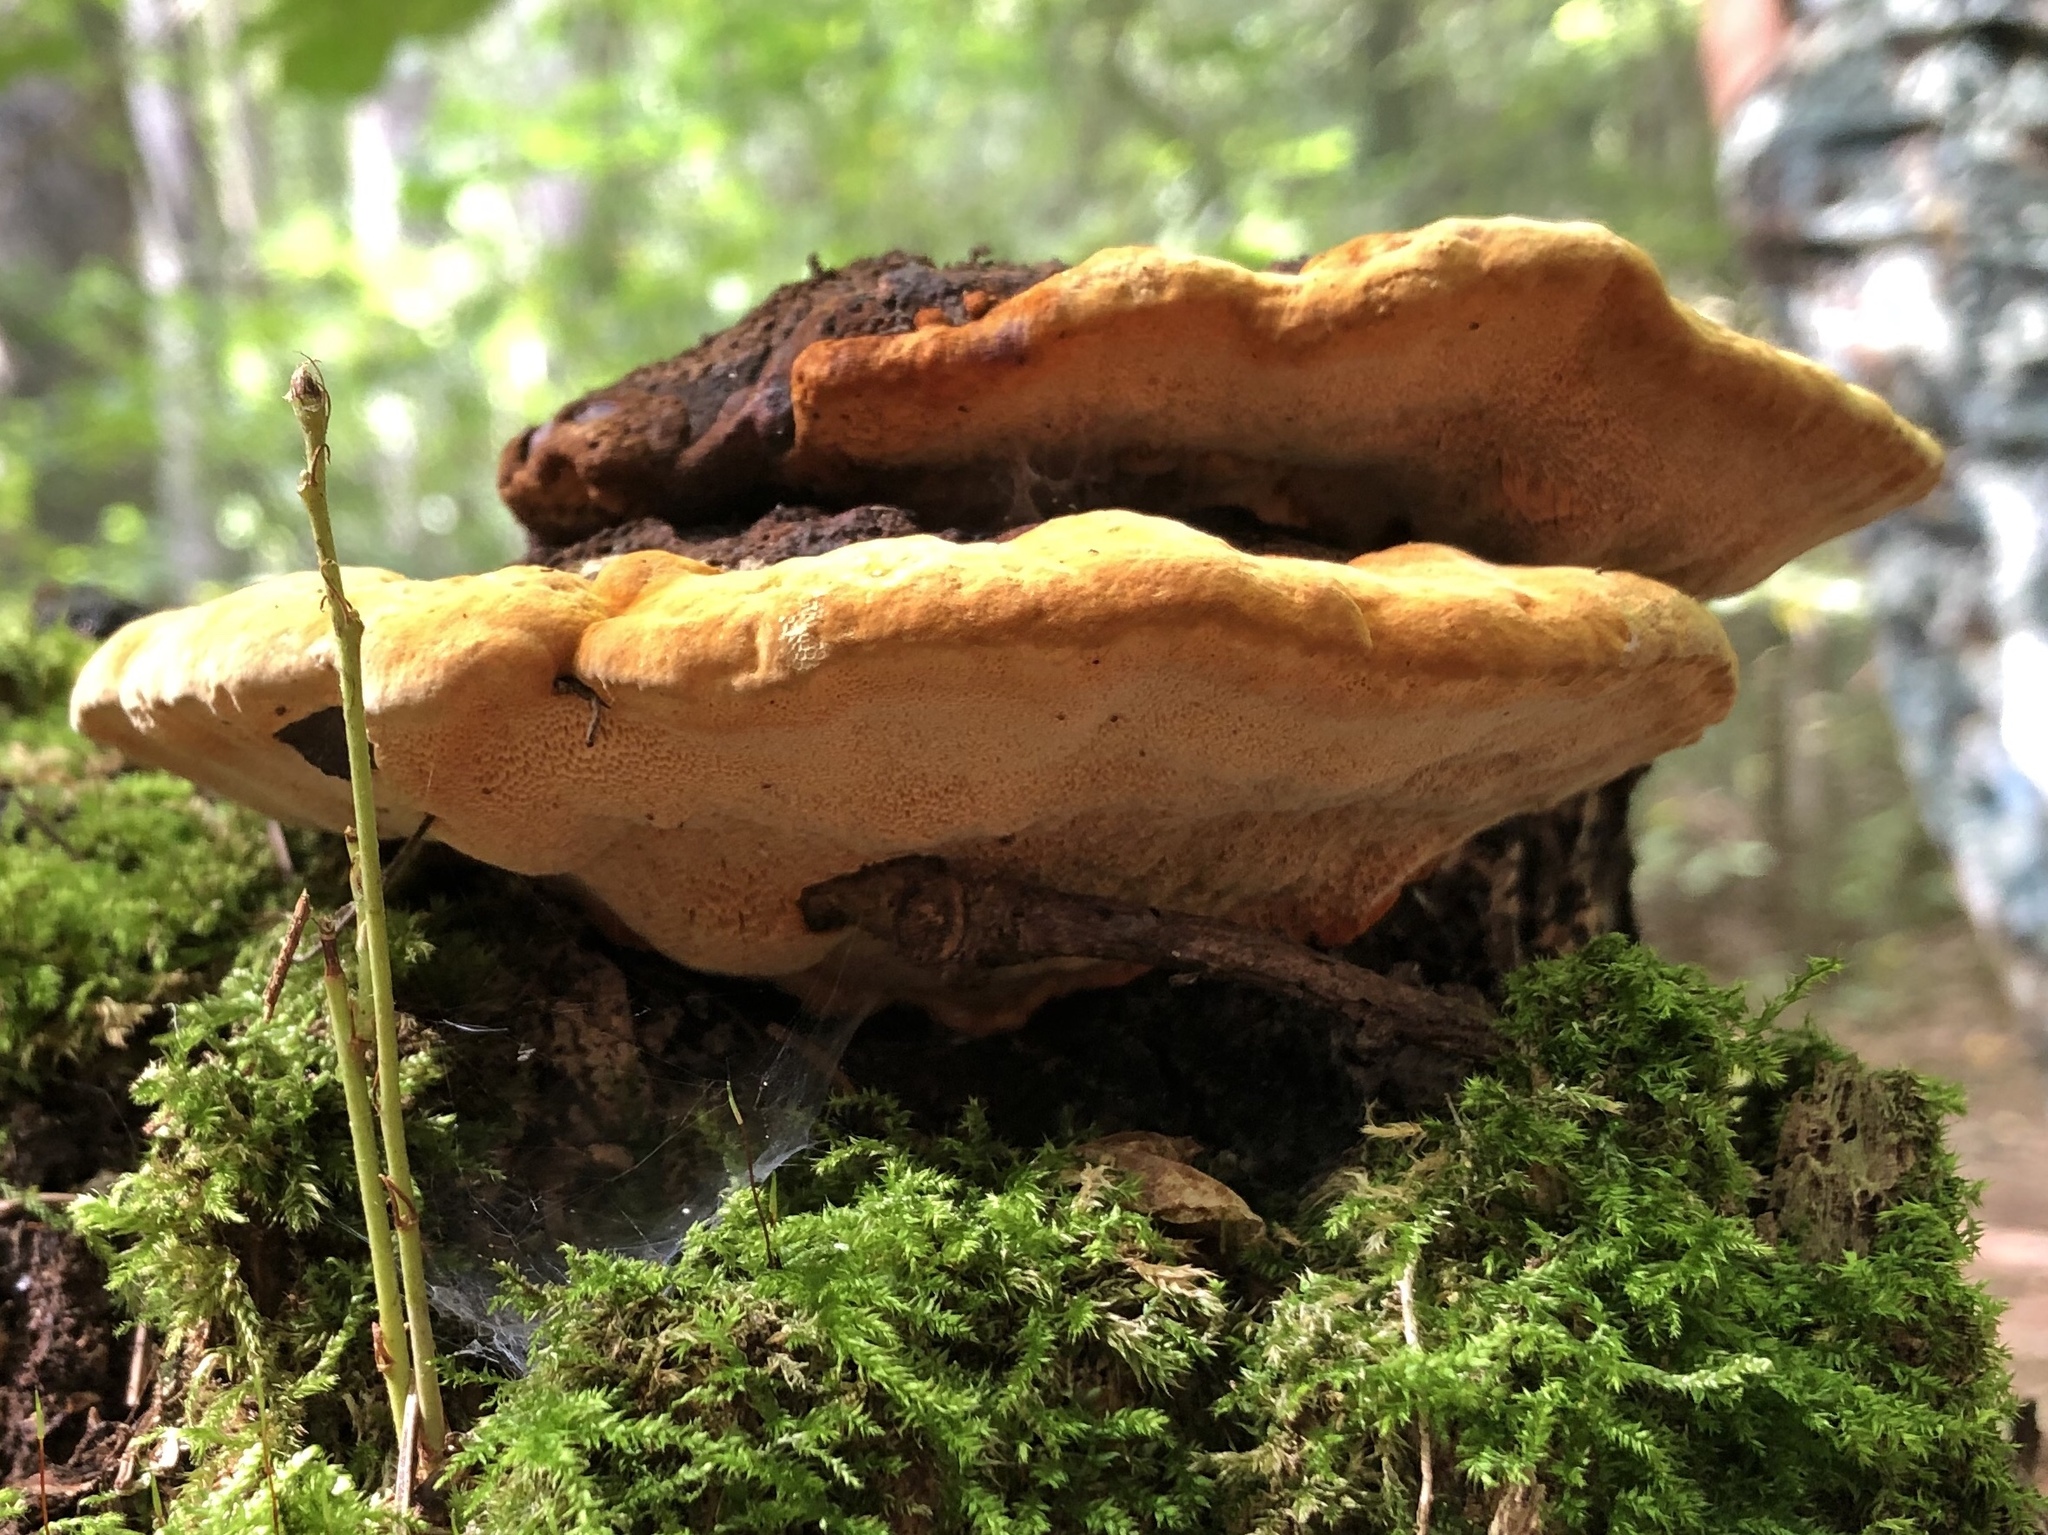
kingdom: Fungi
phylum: Basidiomycota
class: Agaricomycetes
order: Polyporales
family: Laetiporaceae
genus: Phaeolus
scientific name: Phaeolus schweinitzii
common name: Dyer's mazegill
